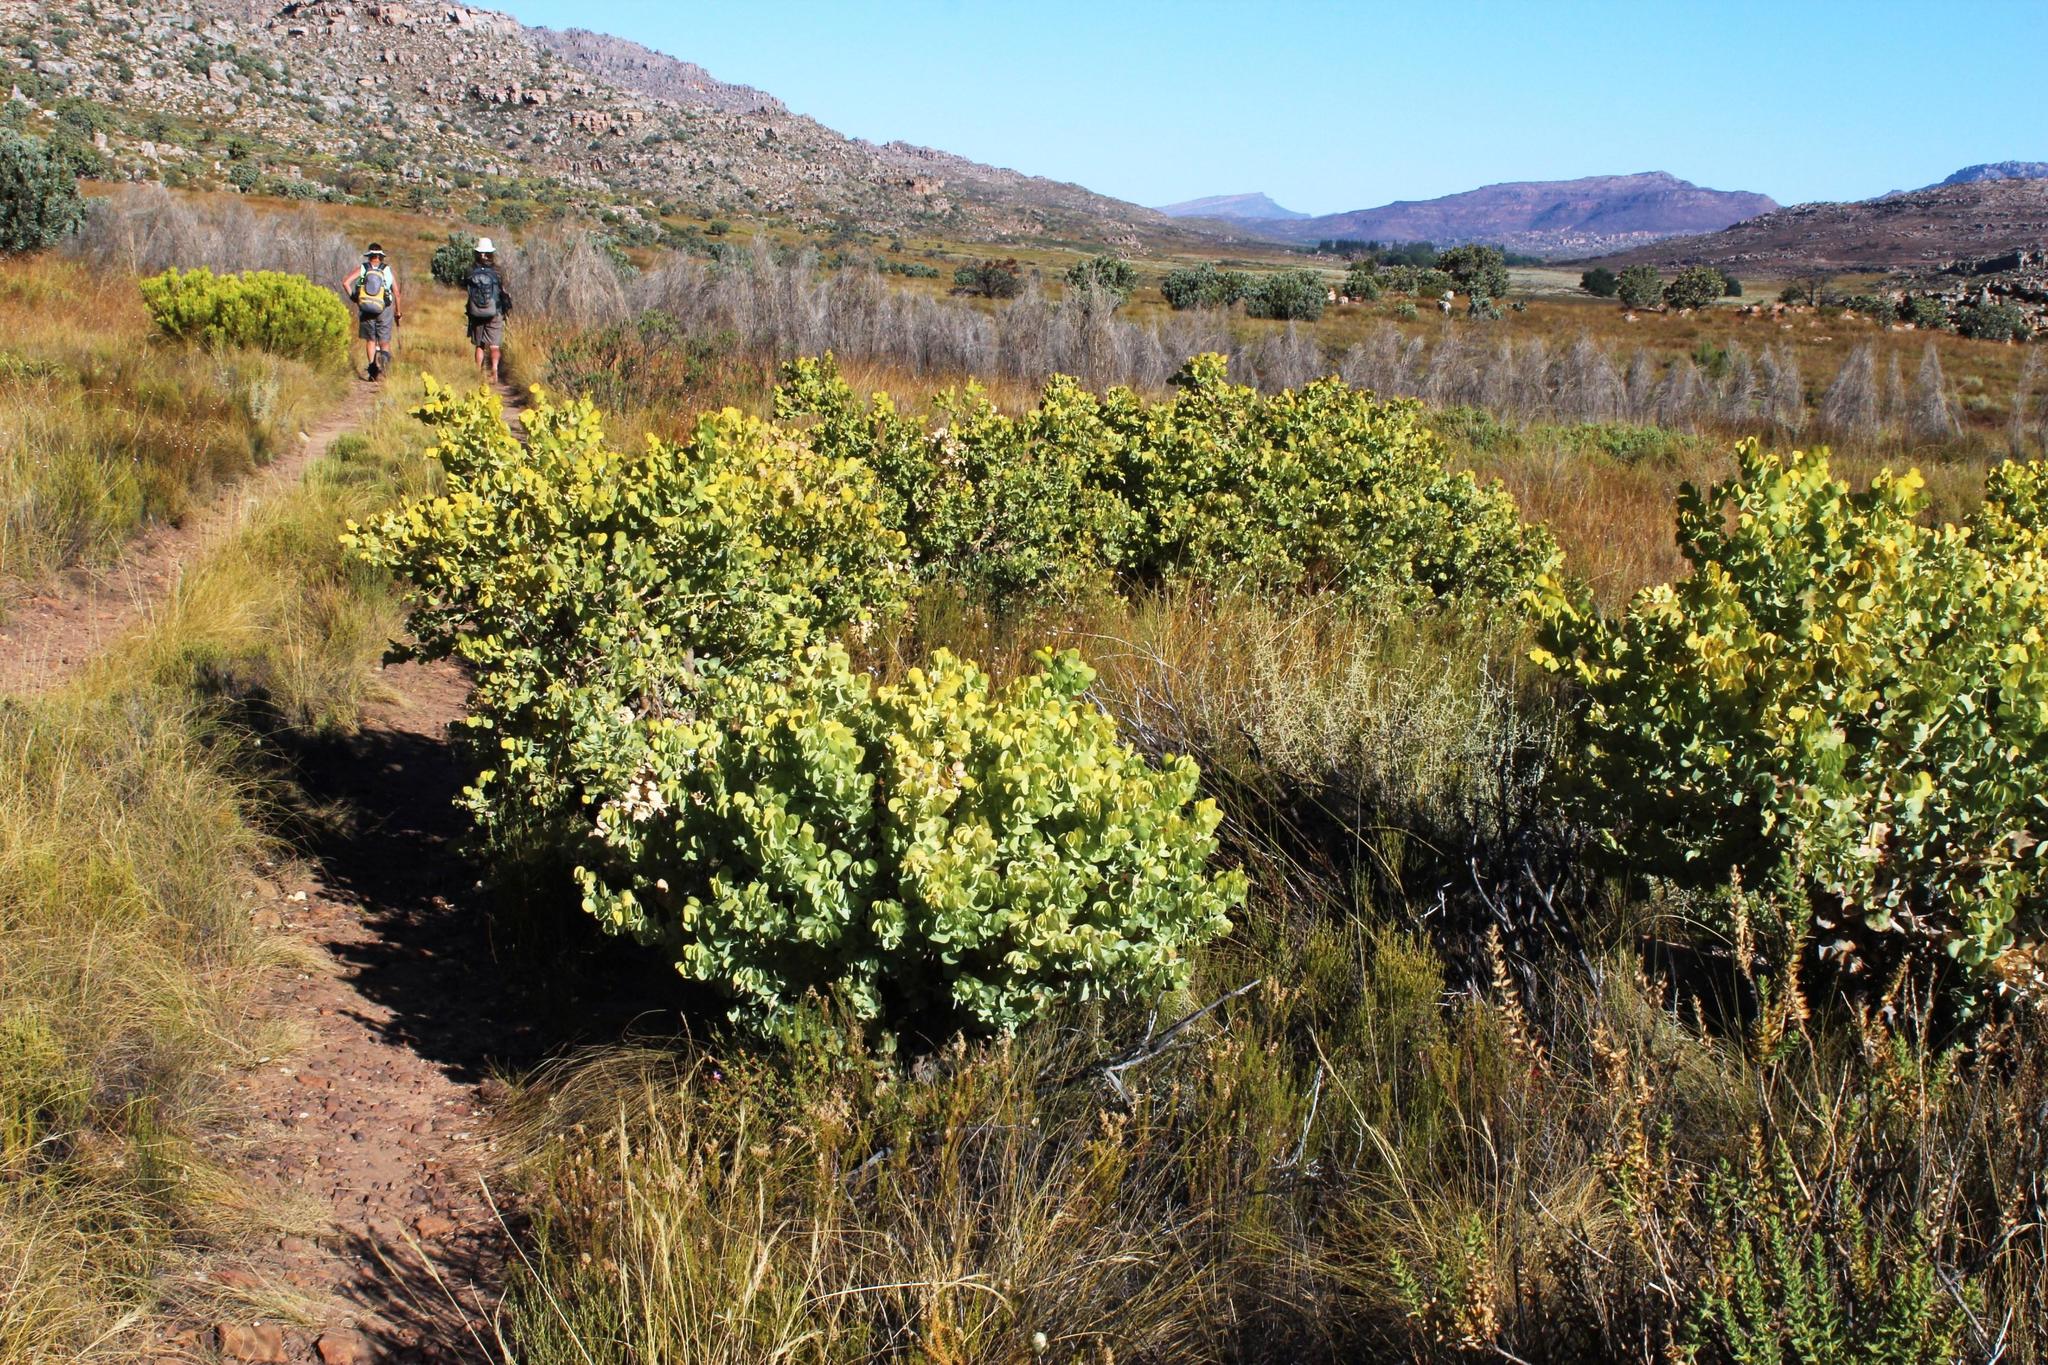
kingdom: Plantae
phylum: Tracheophyta
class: Magnoliopsida
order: Fabales
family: Fabaceae
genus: Rafnia
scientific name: Rafnia amplexicaulis
